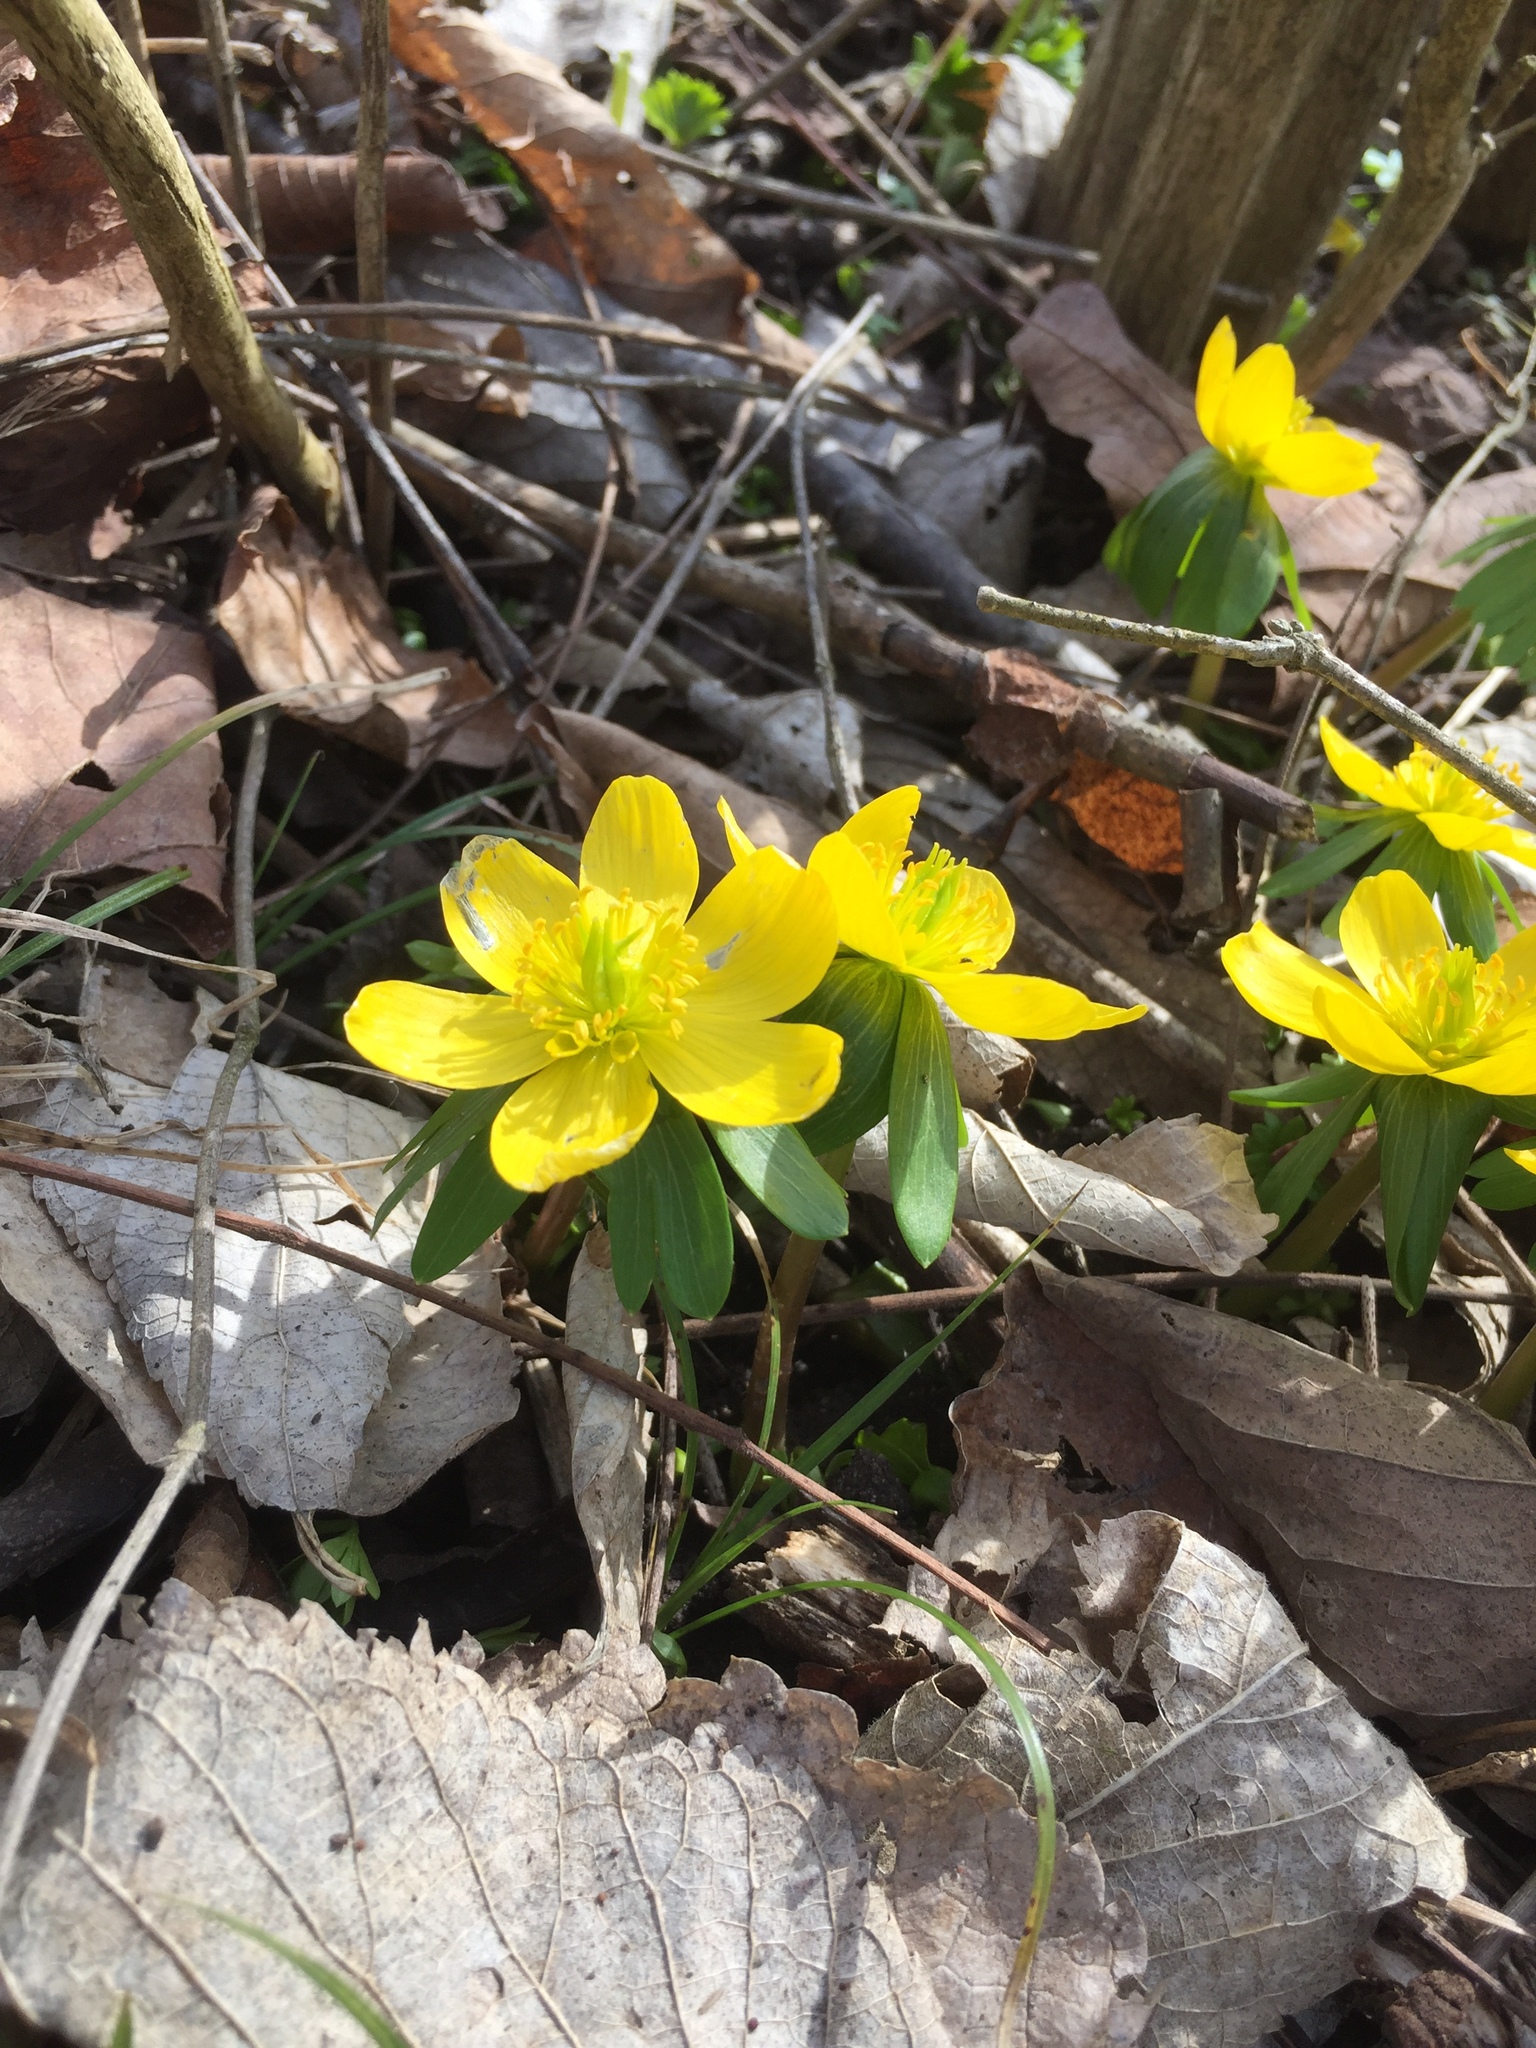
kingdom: Plantae
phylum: Tracheophyta
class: Magnoliopsida
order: Ranunculales
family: Ranunculaceae
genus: Eranthis
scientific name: Eranthis hyemalis
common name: Winter aconite
